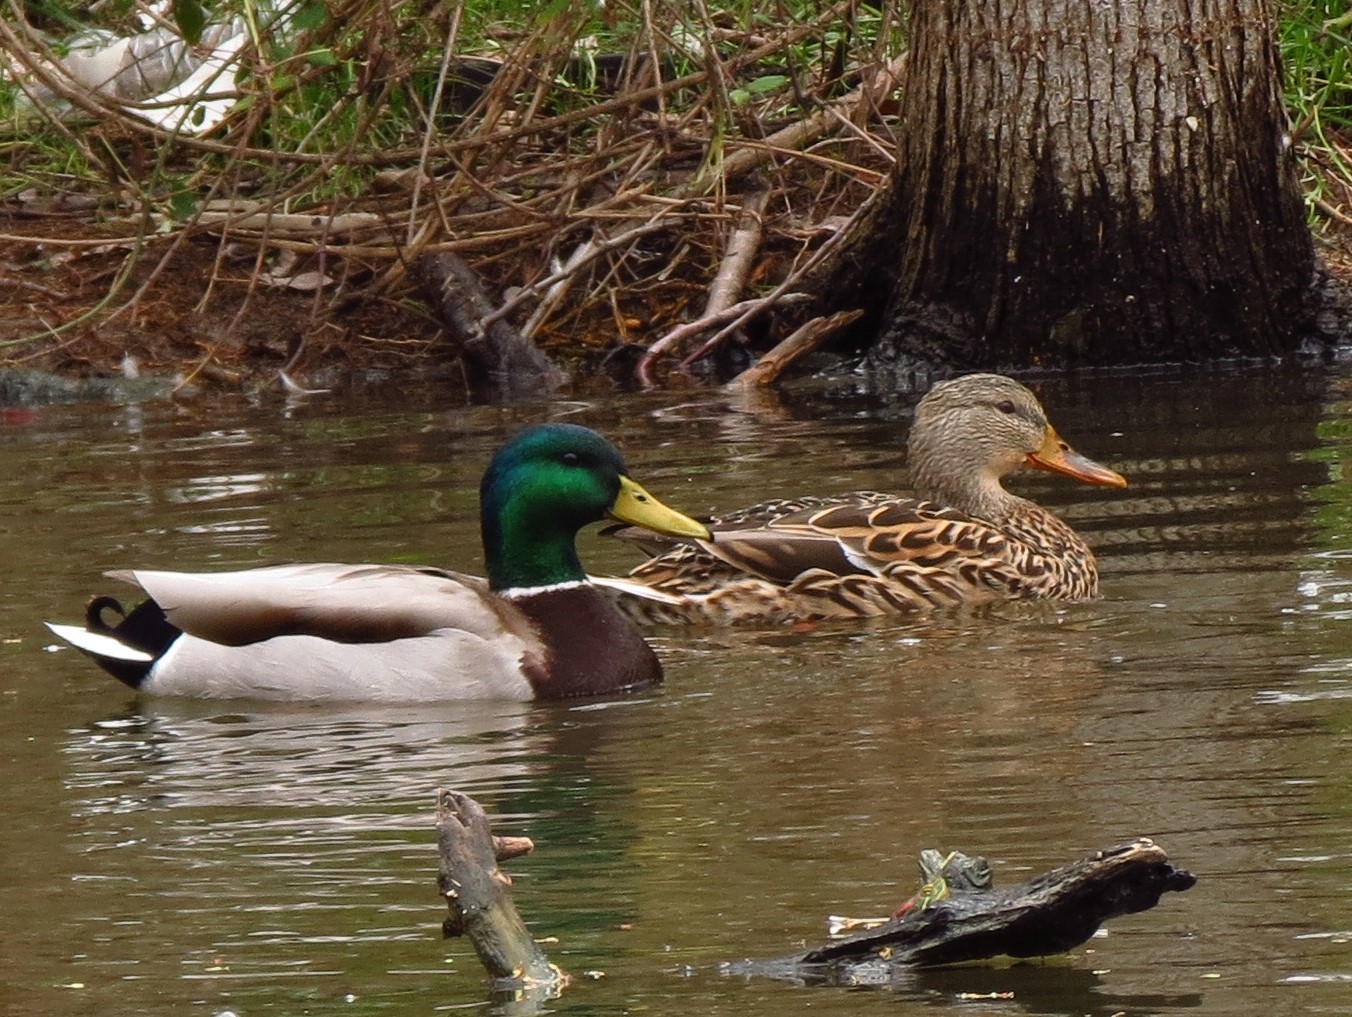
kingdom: Animalia
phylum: Chordata
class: Aves
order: Anseriformes
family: Anatidae
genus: Anas
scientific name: Anas platyrhynchos
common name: Mallard
